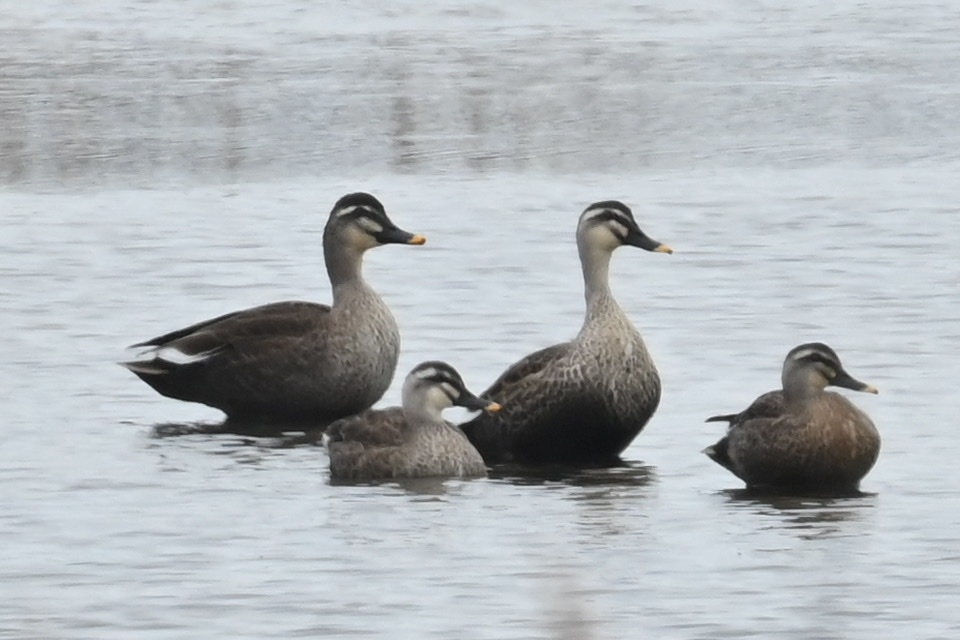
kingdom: Animalia
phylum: Chordata
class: Aves
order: Anseriformes
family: Anatidae
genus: Anas
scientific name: Anas zonorhyncha
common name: Eastern spot-billed duck
